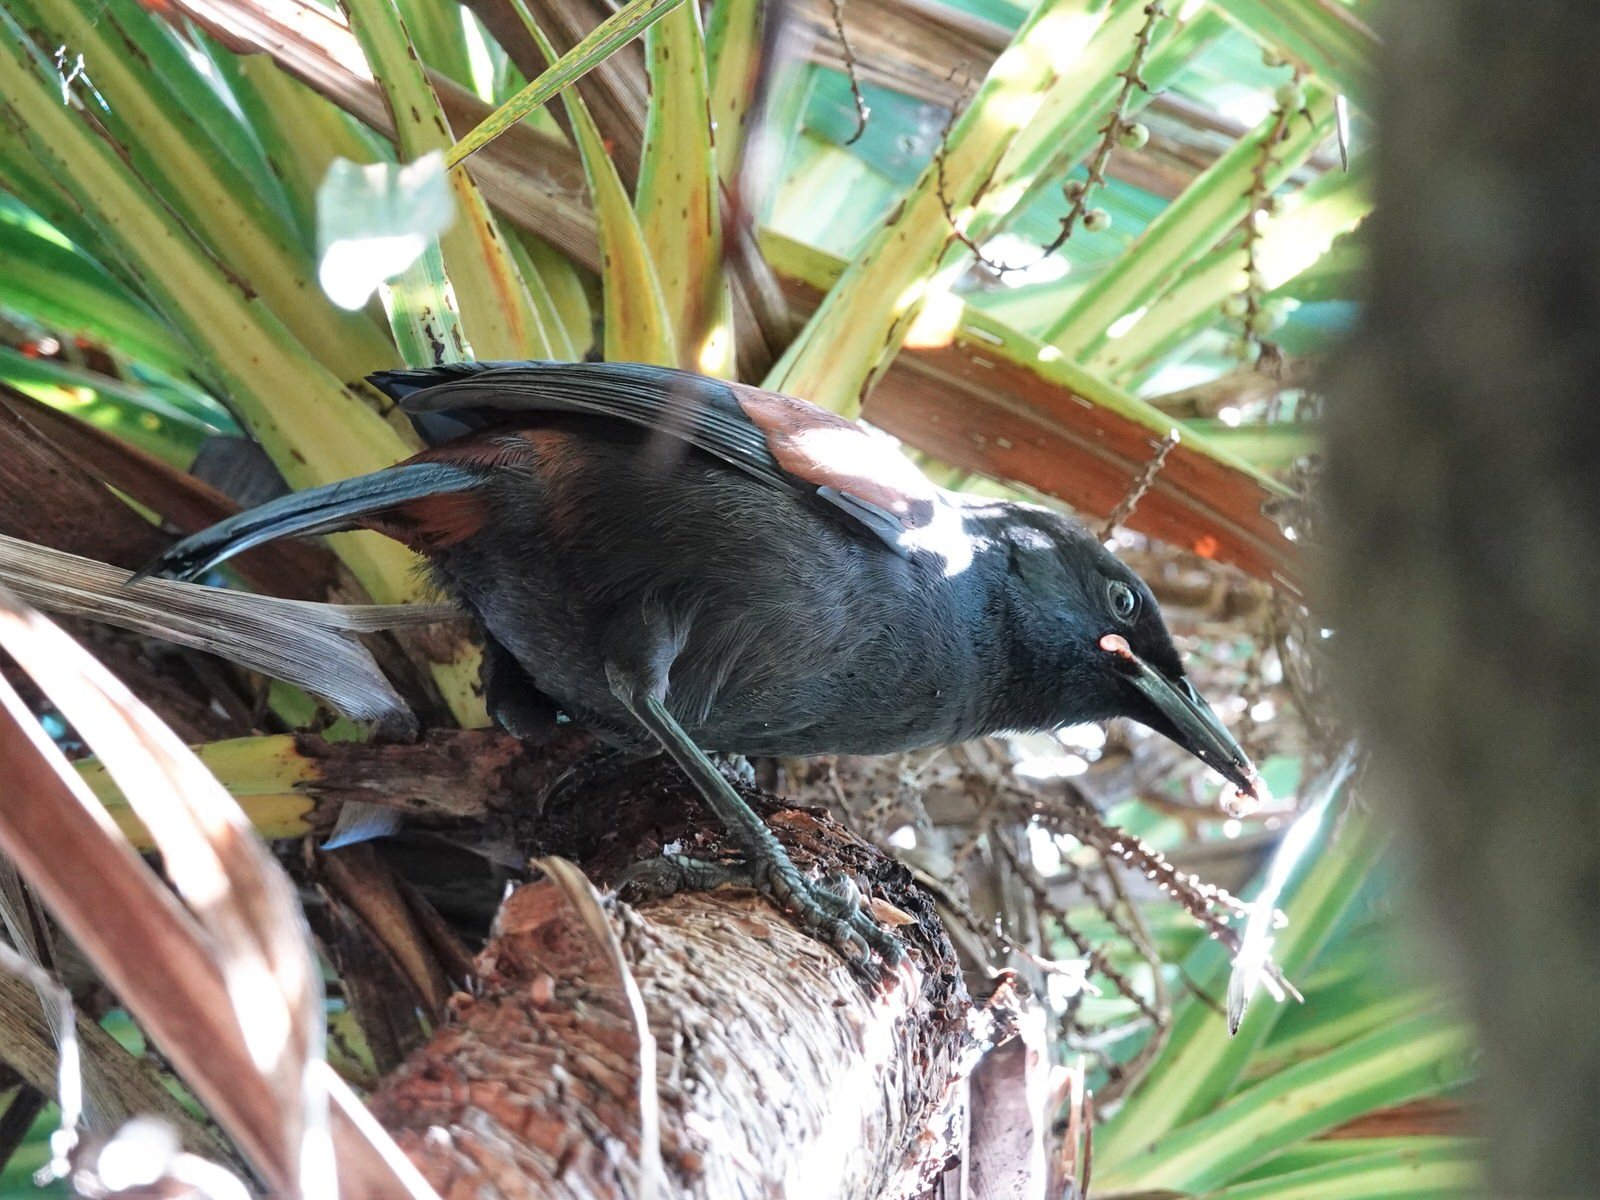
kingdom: Animalia
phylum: Chordata
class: Aves
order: Passeriformes
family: Callaeatidae
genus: Philesturnus
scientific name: Philesturnus carunculatus
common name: South island saddleback
